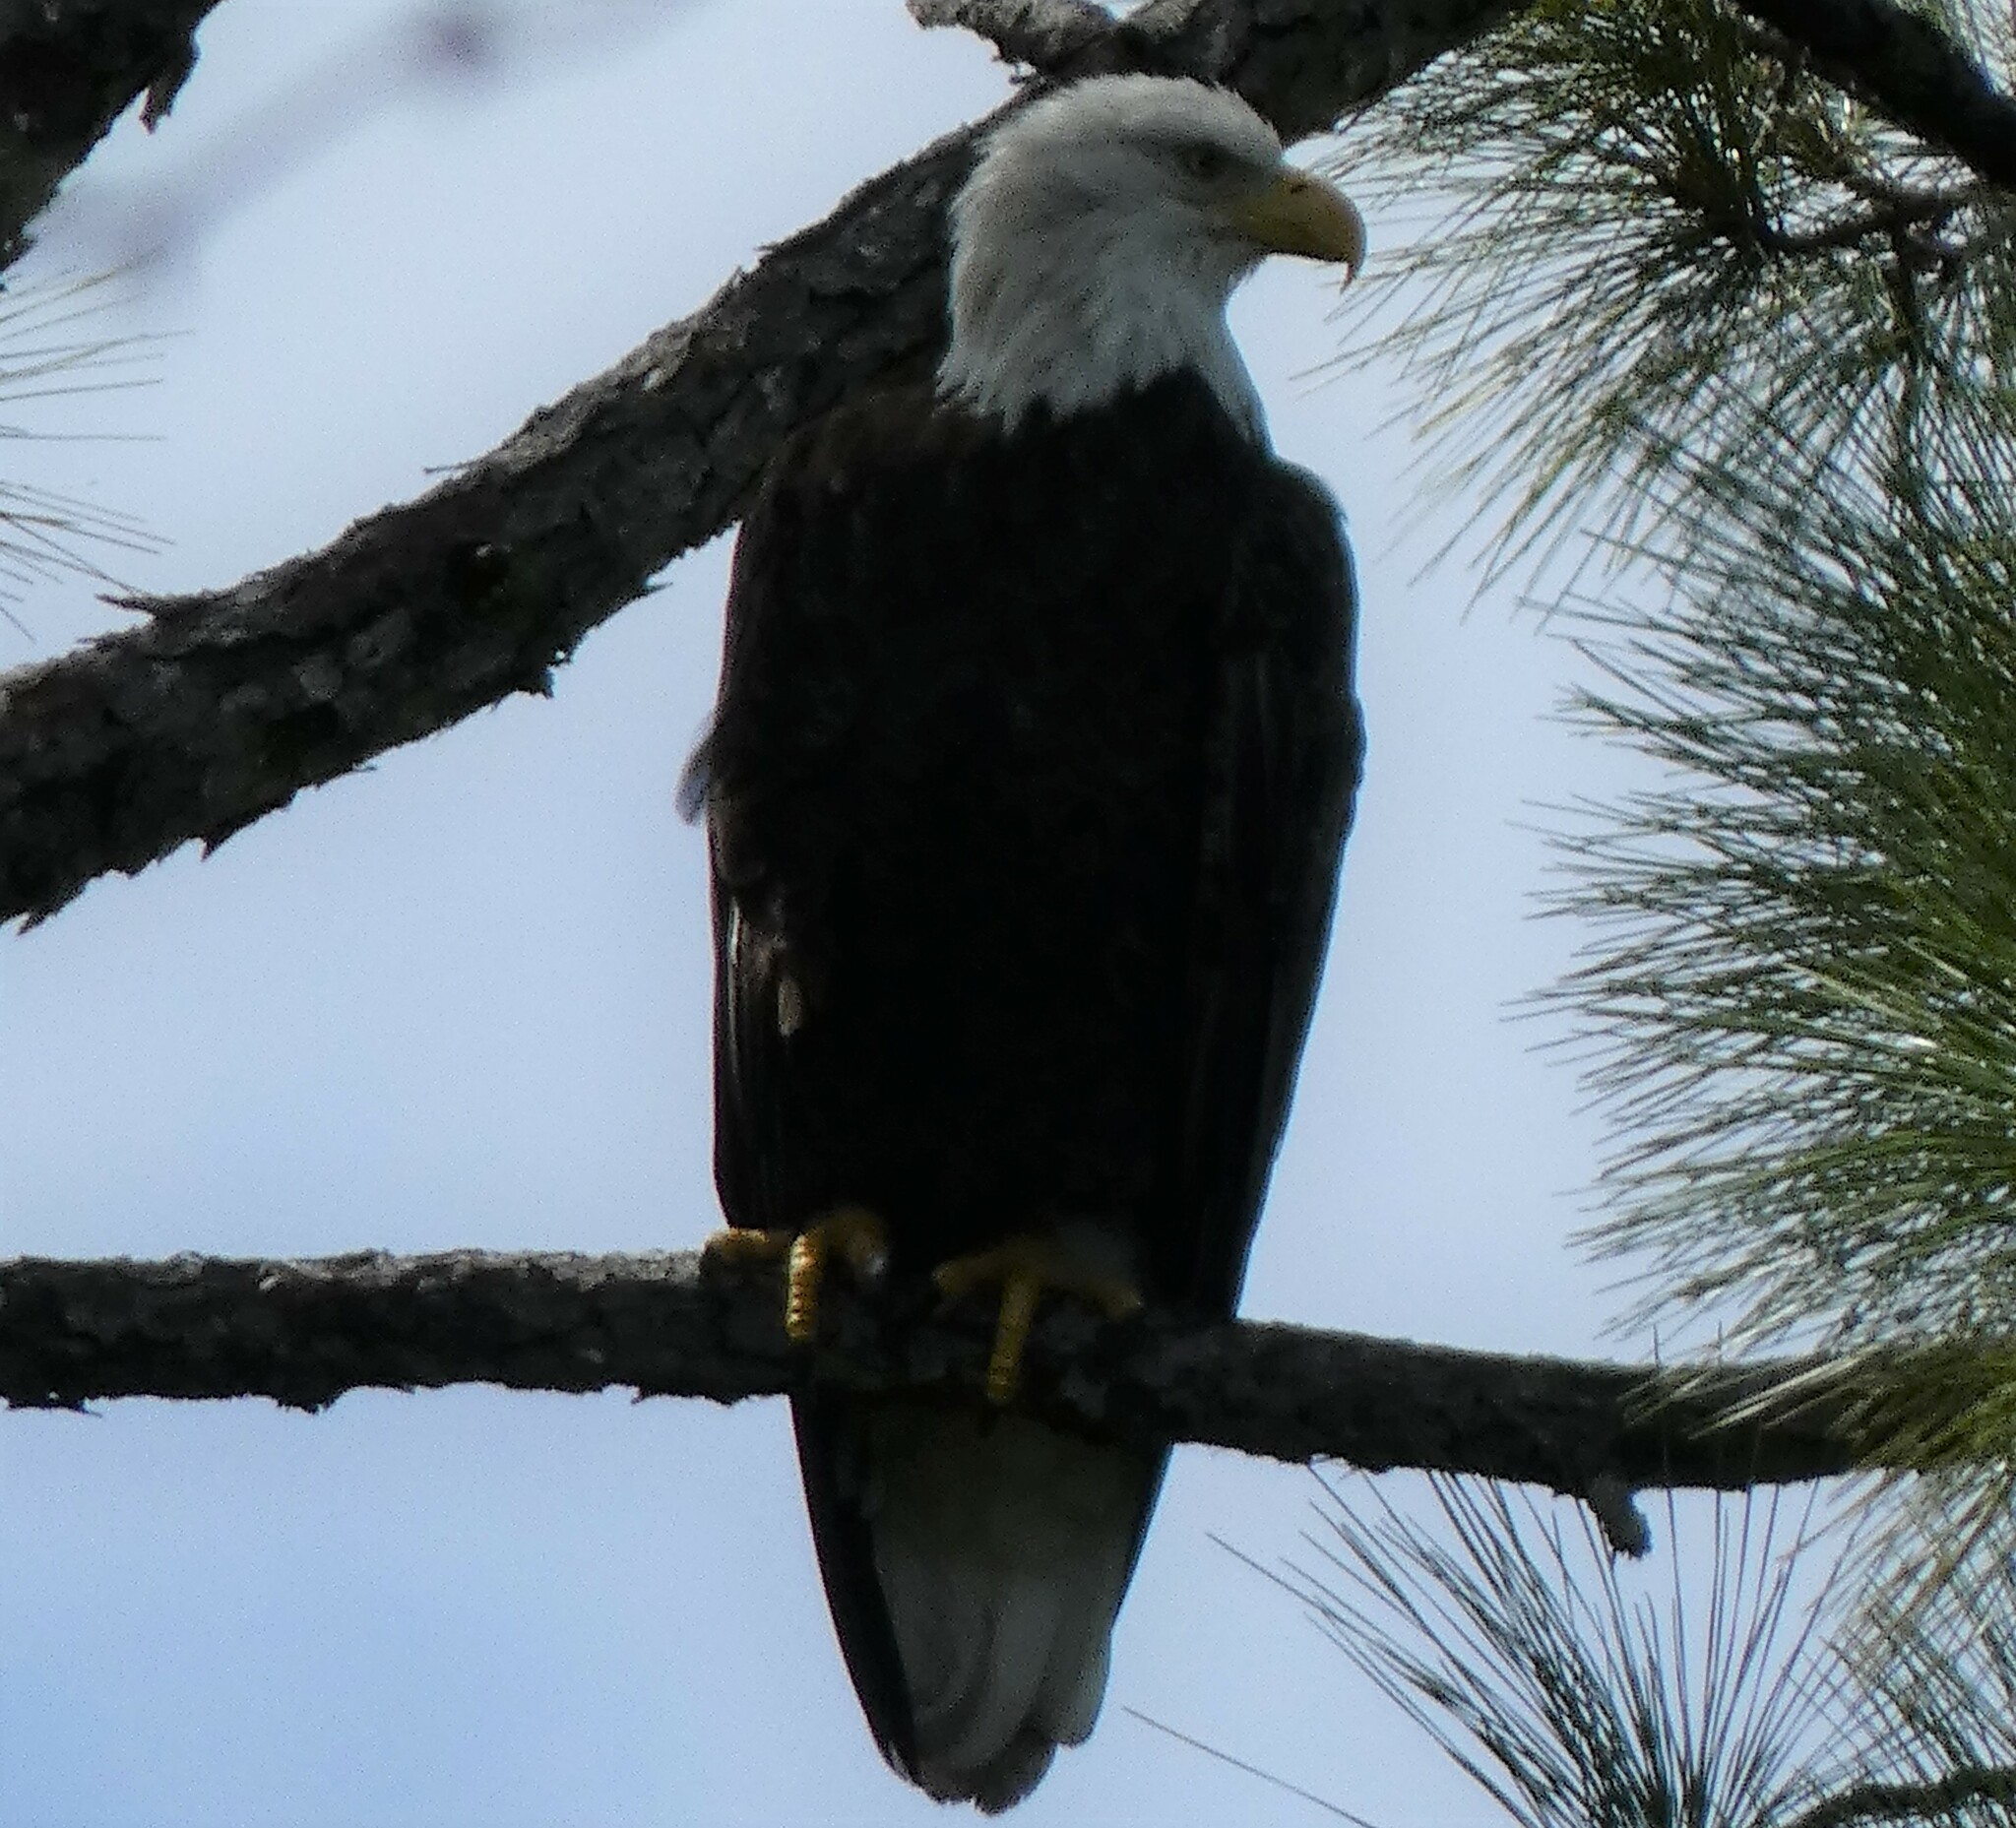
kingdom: Animalia
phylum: Chordata
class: Aves
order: Accipitriformes
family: Accipitridae
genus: Haliaeetus
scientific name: Haliaeetus leucocephalus
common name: Bald eagle
